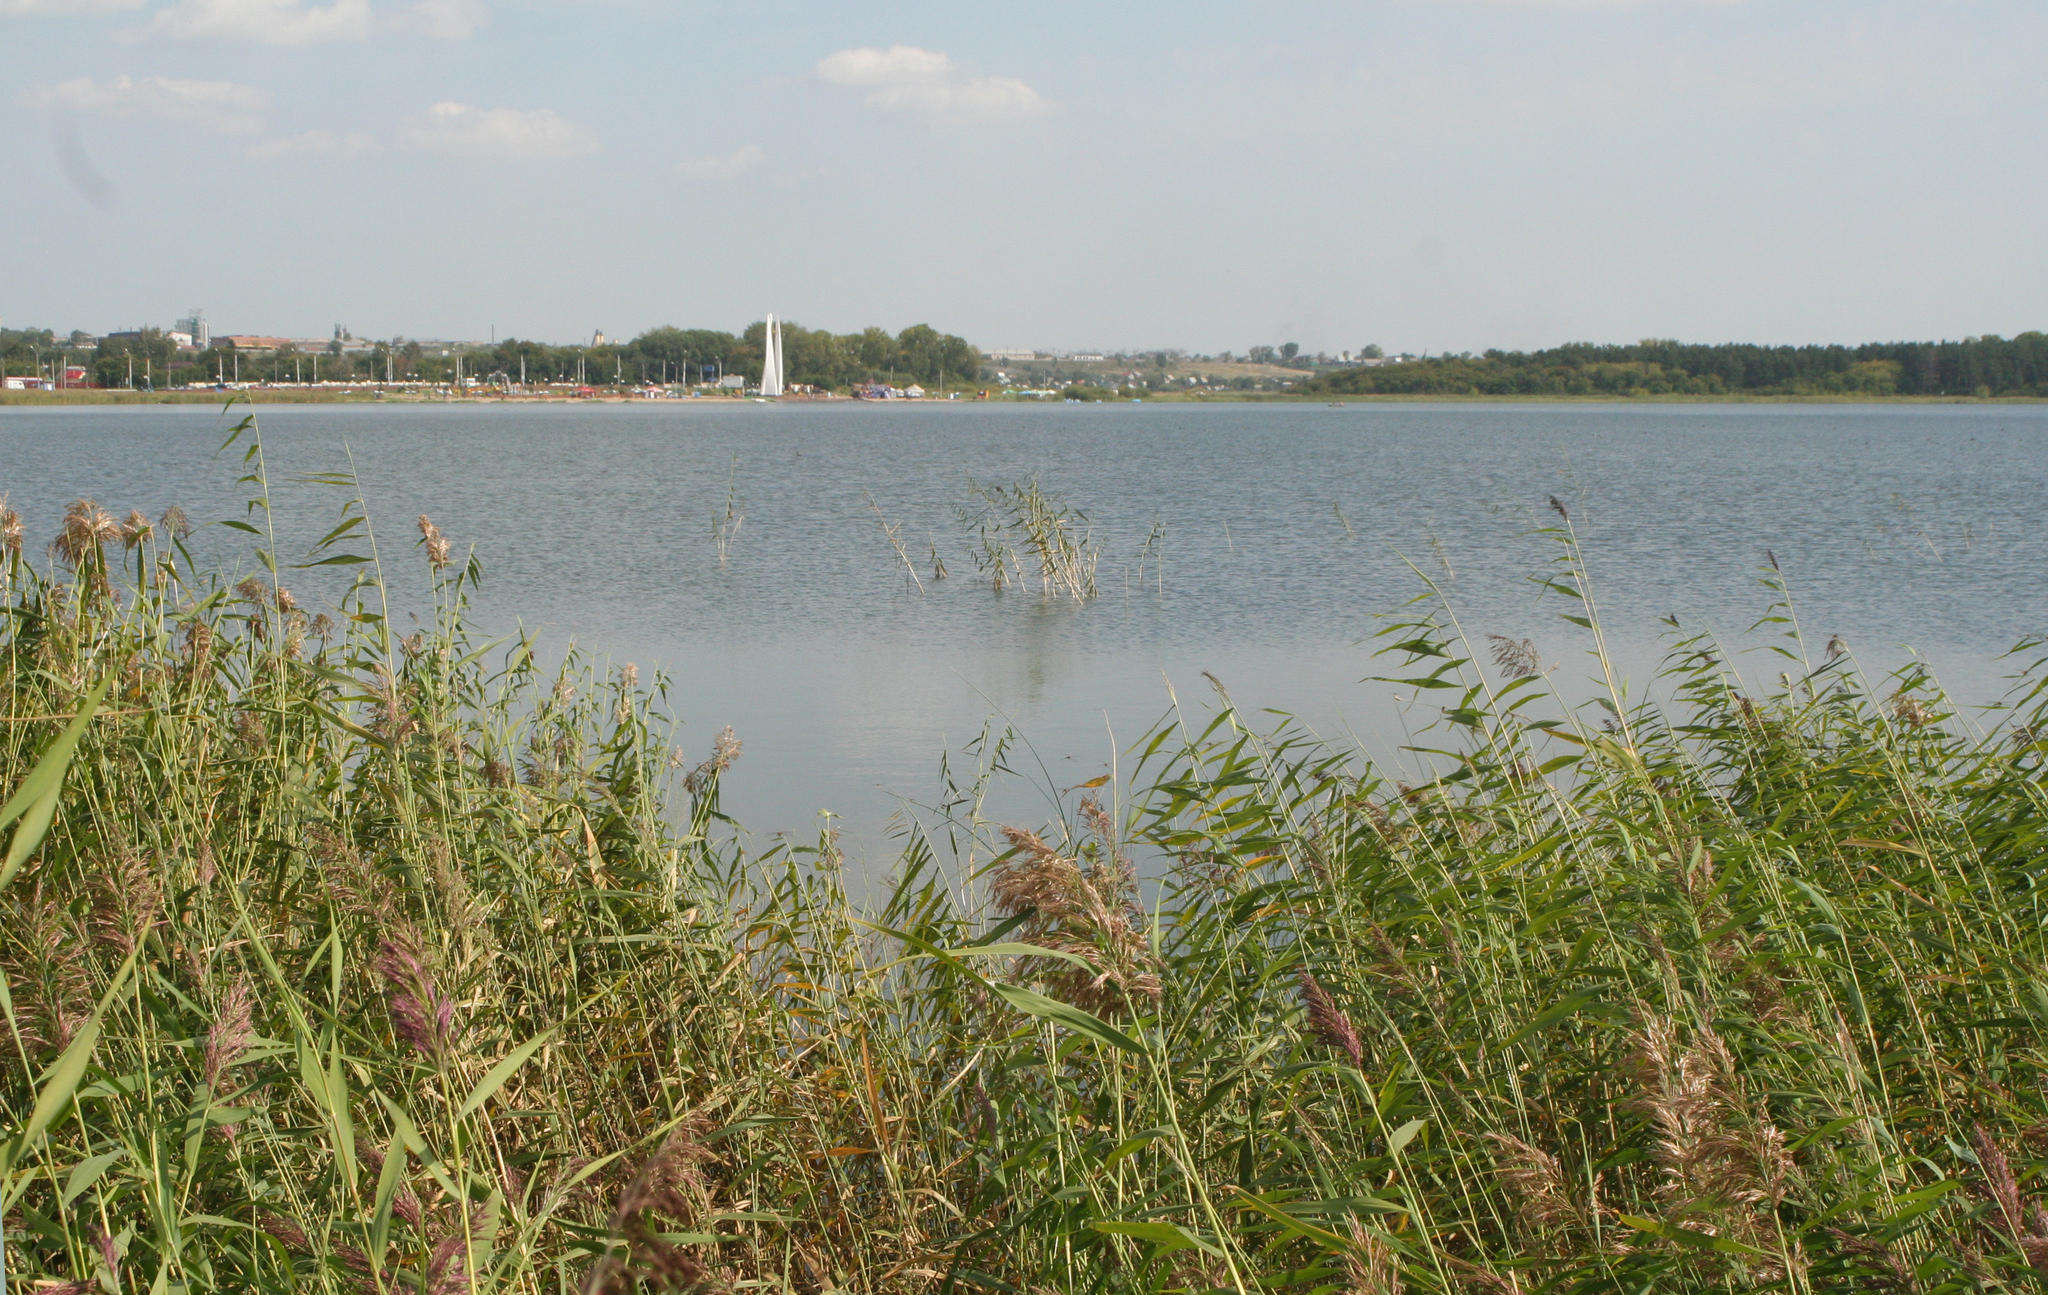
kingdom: Plantae
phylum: Tracheophyta
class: Liliopsida
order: Poales
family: Poaceae
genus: Phragmites
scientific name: Phragmites australis
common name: Common reed
